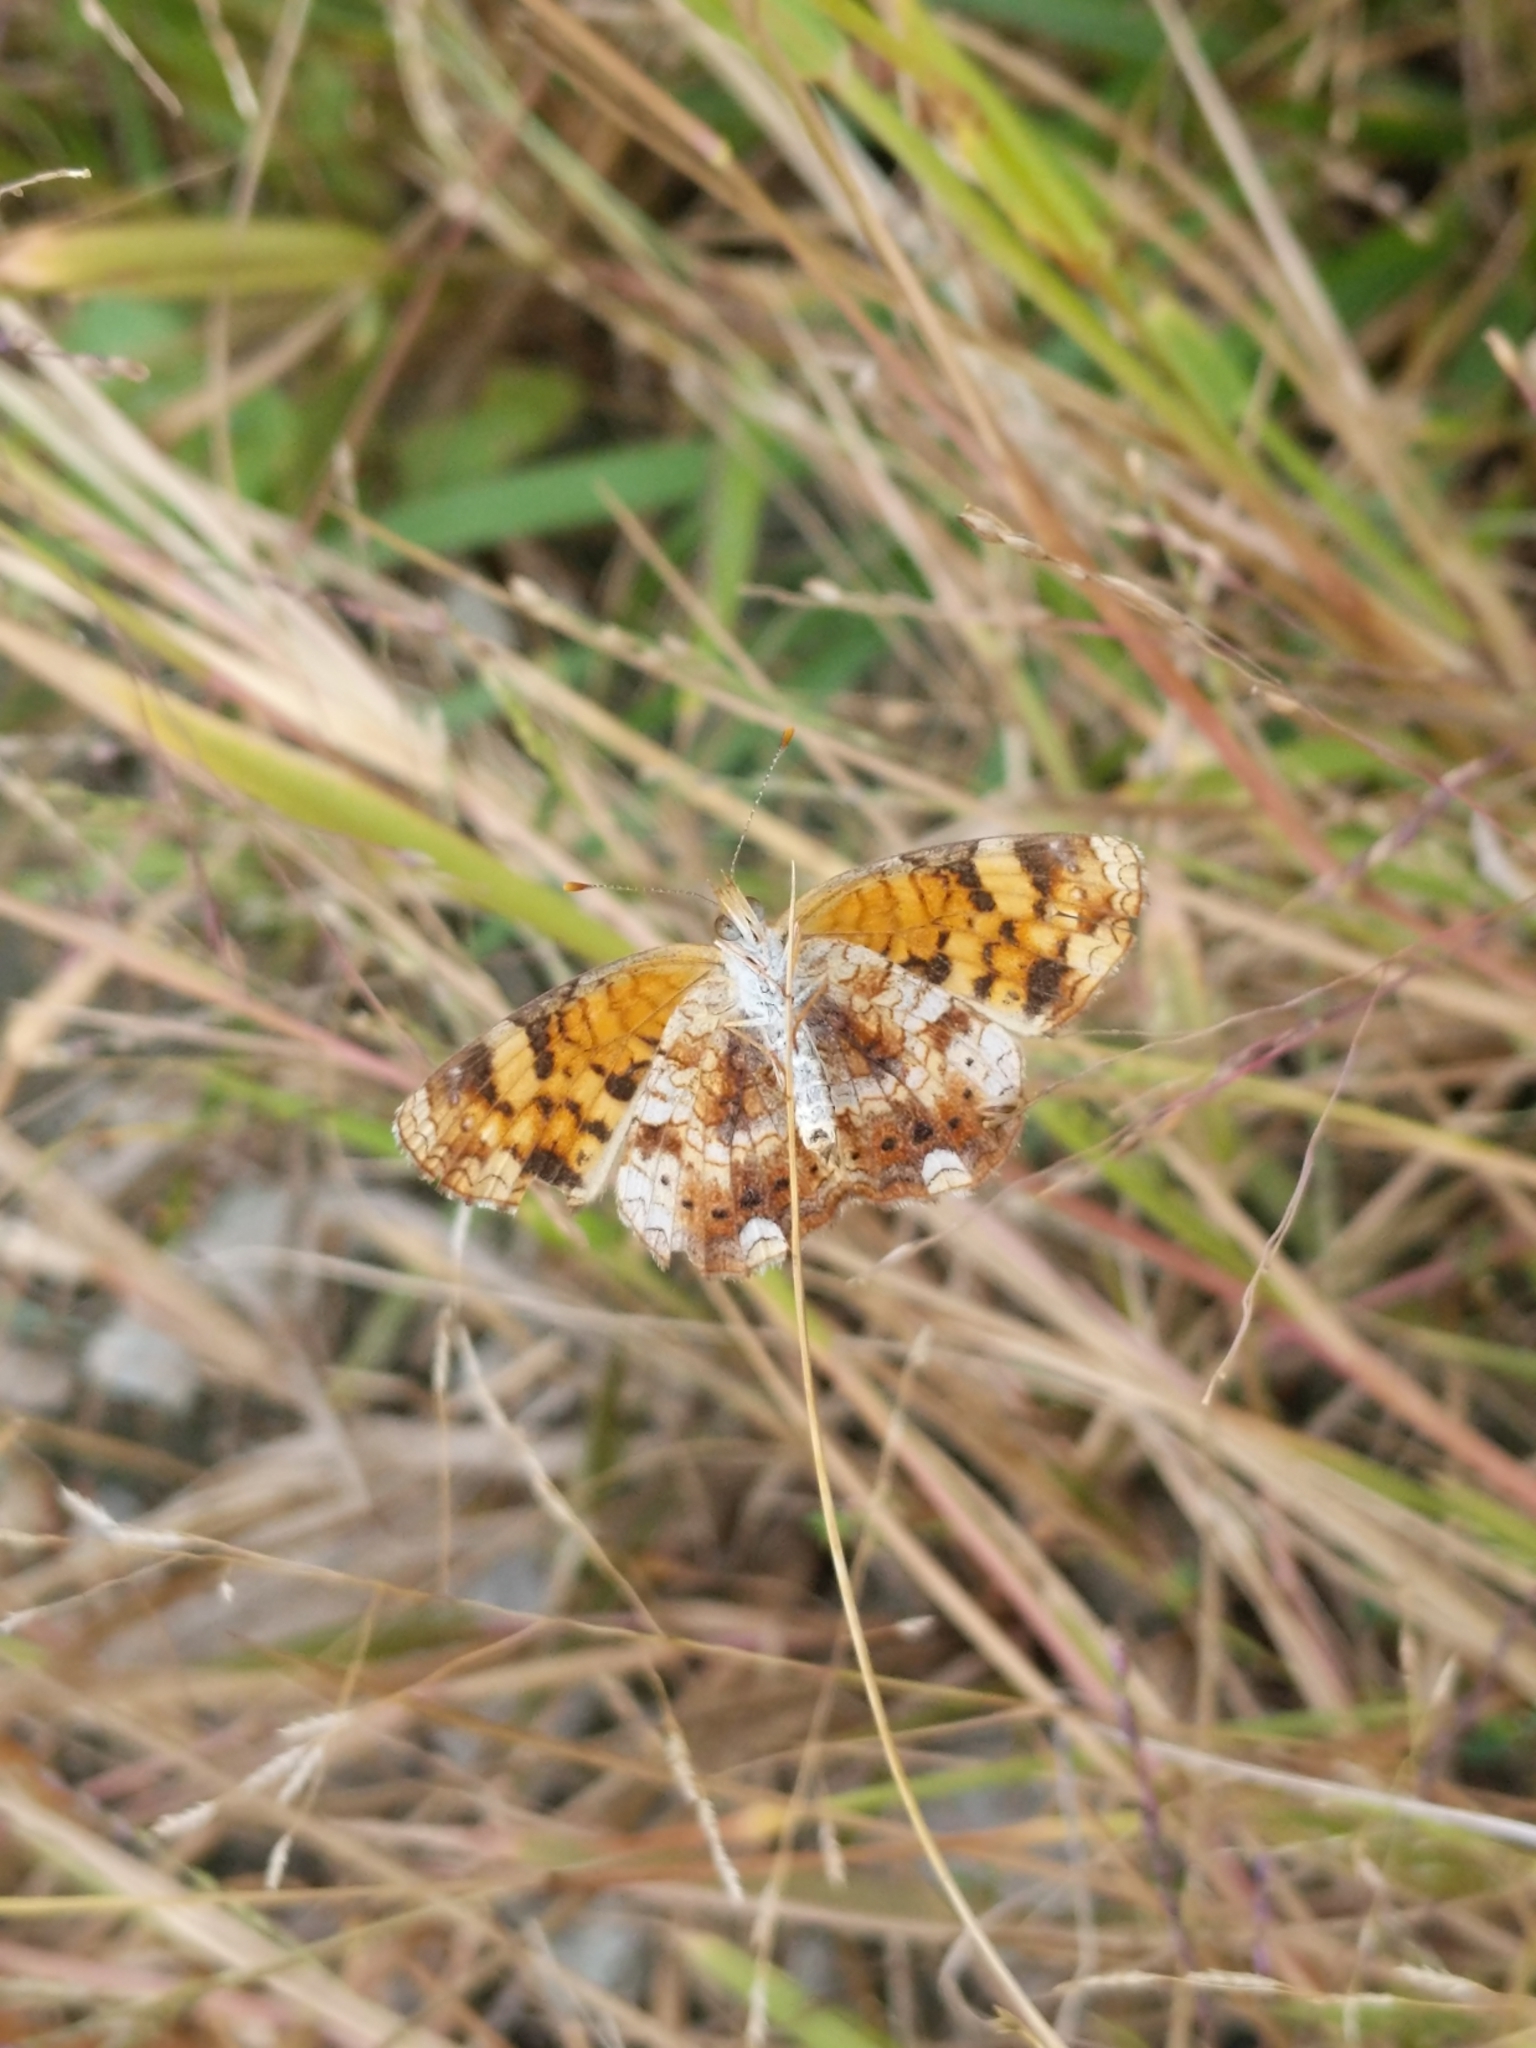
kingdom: Animalia
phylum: Arthropoda
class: Insecta
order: Lepidoptera
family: Nymphalidae
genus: Phyciodes
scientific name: Phyciodes tharos
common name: Pearl crescent
